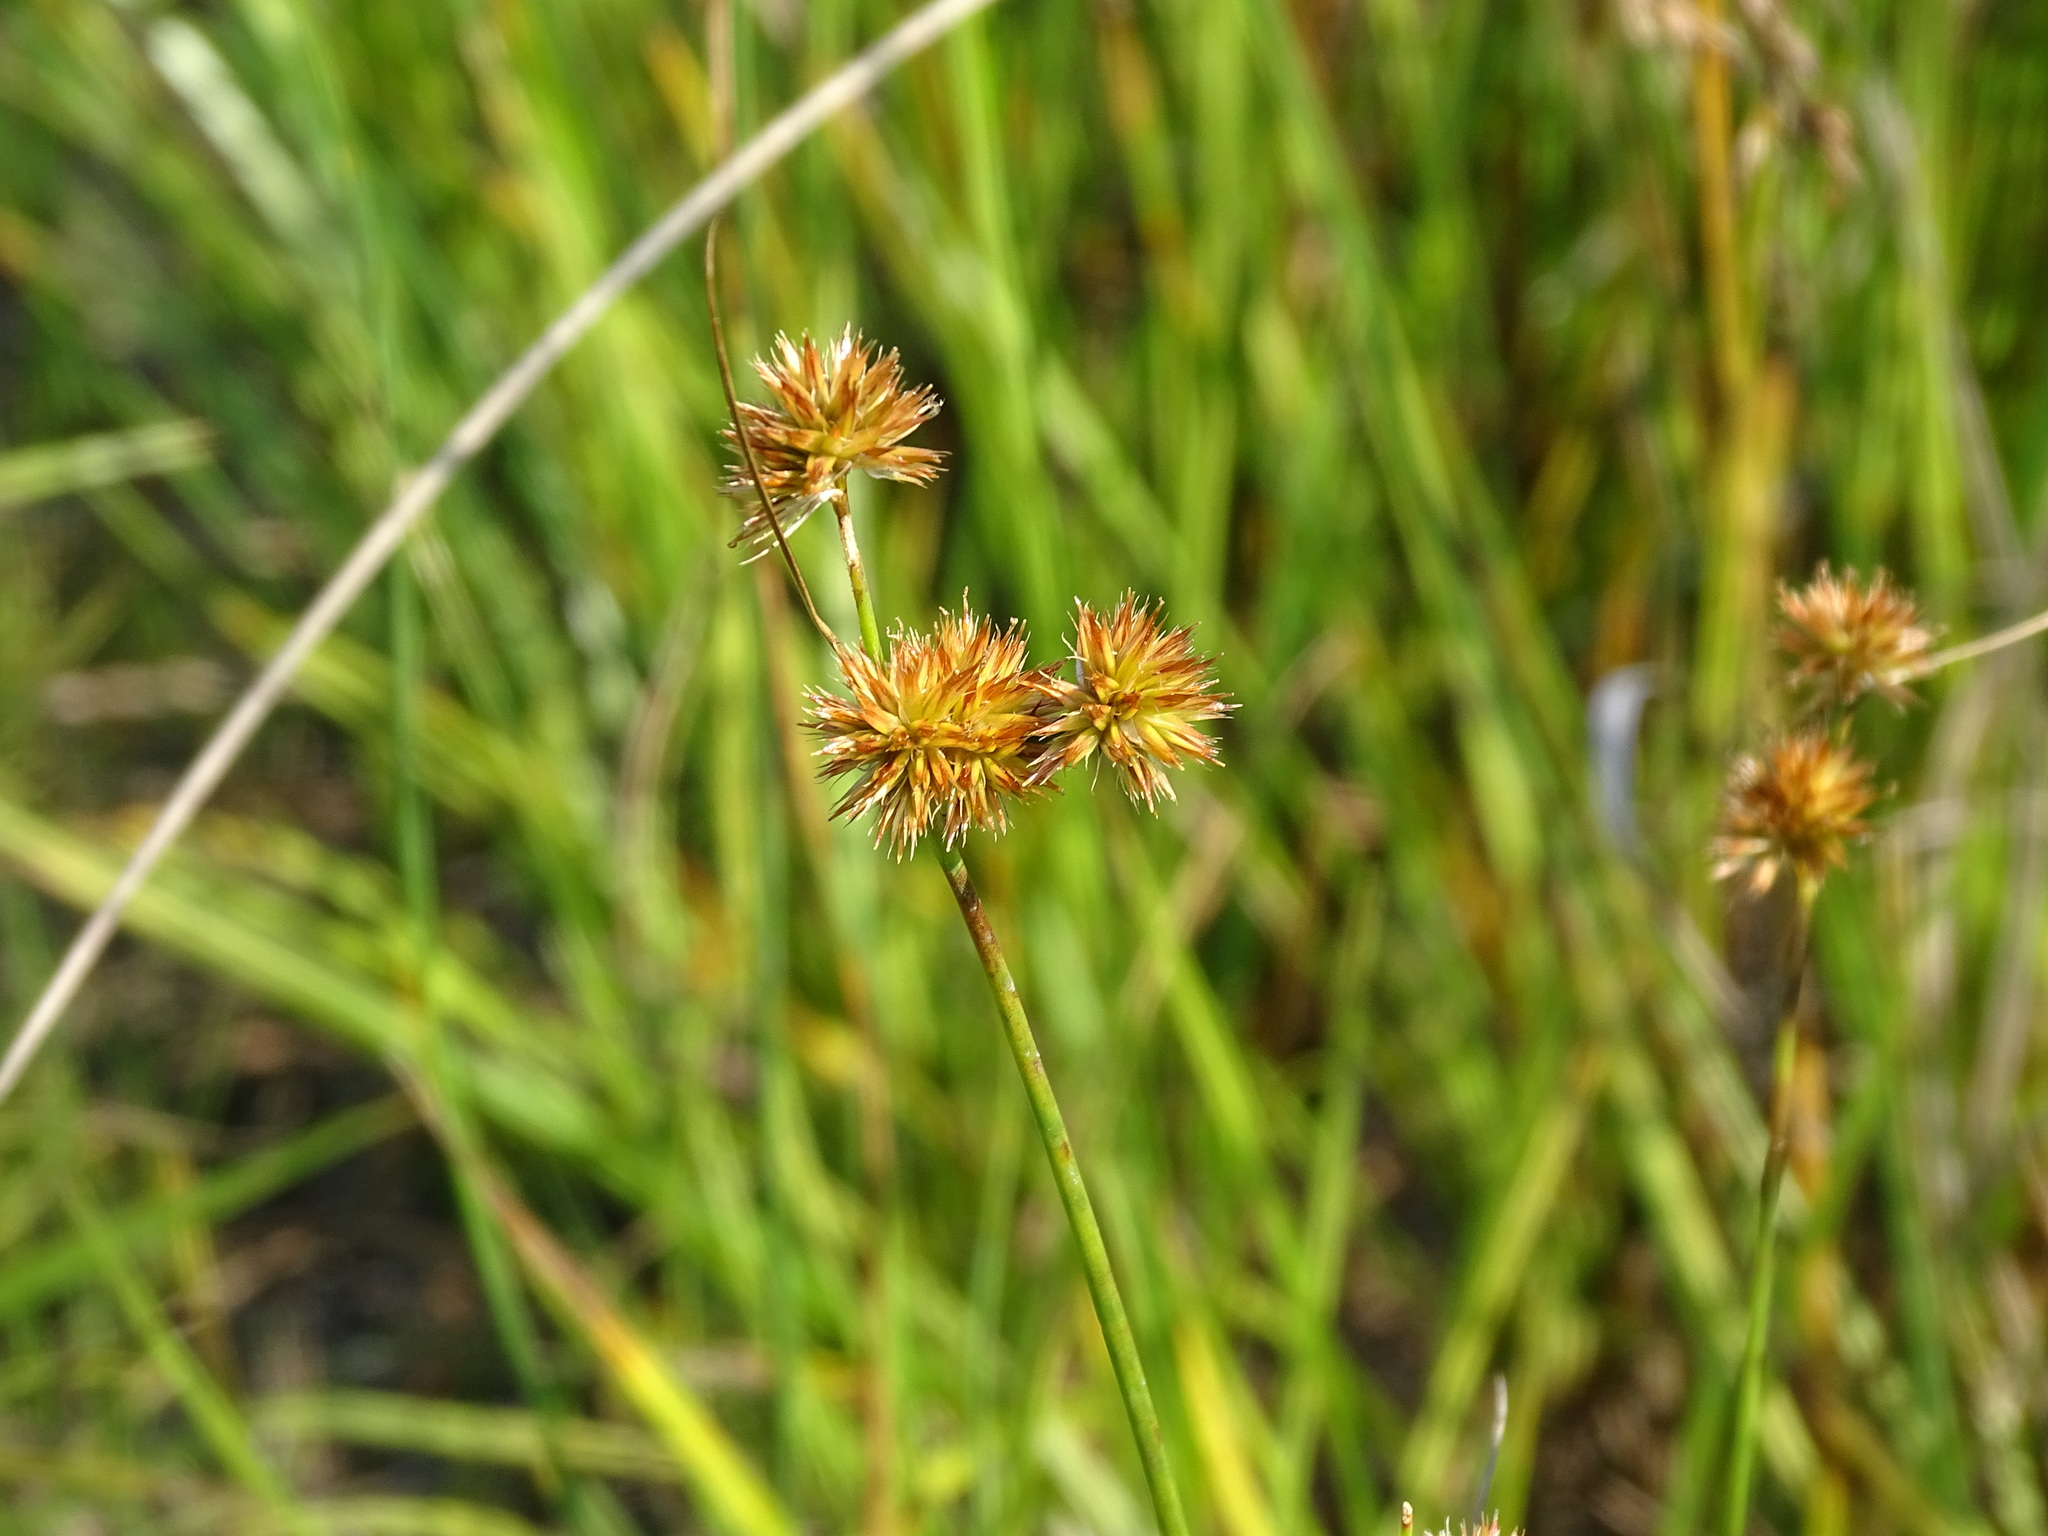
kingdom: Plantae
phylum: Tracheophyta
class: Liliopsida
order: Poales
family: Juncaceae
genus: Juncus
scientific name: Juncus torreyi
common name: Torrey's rush
